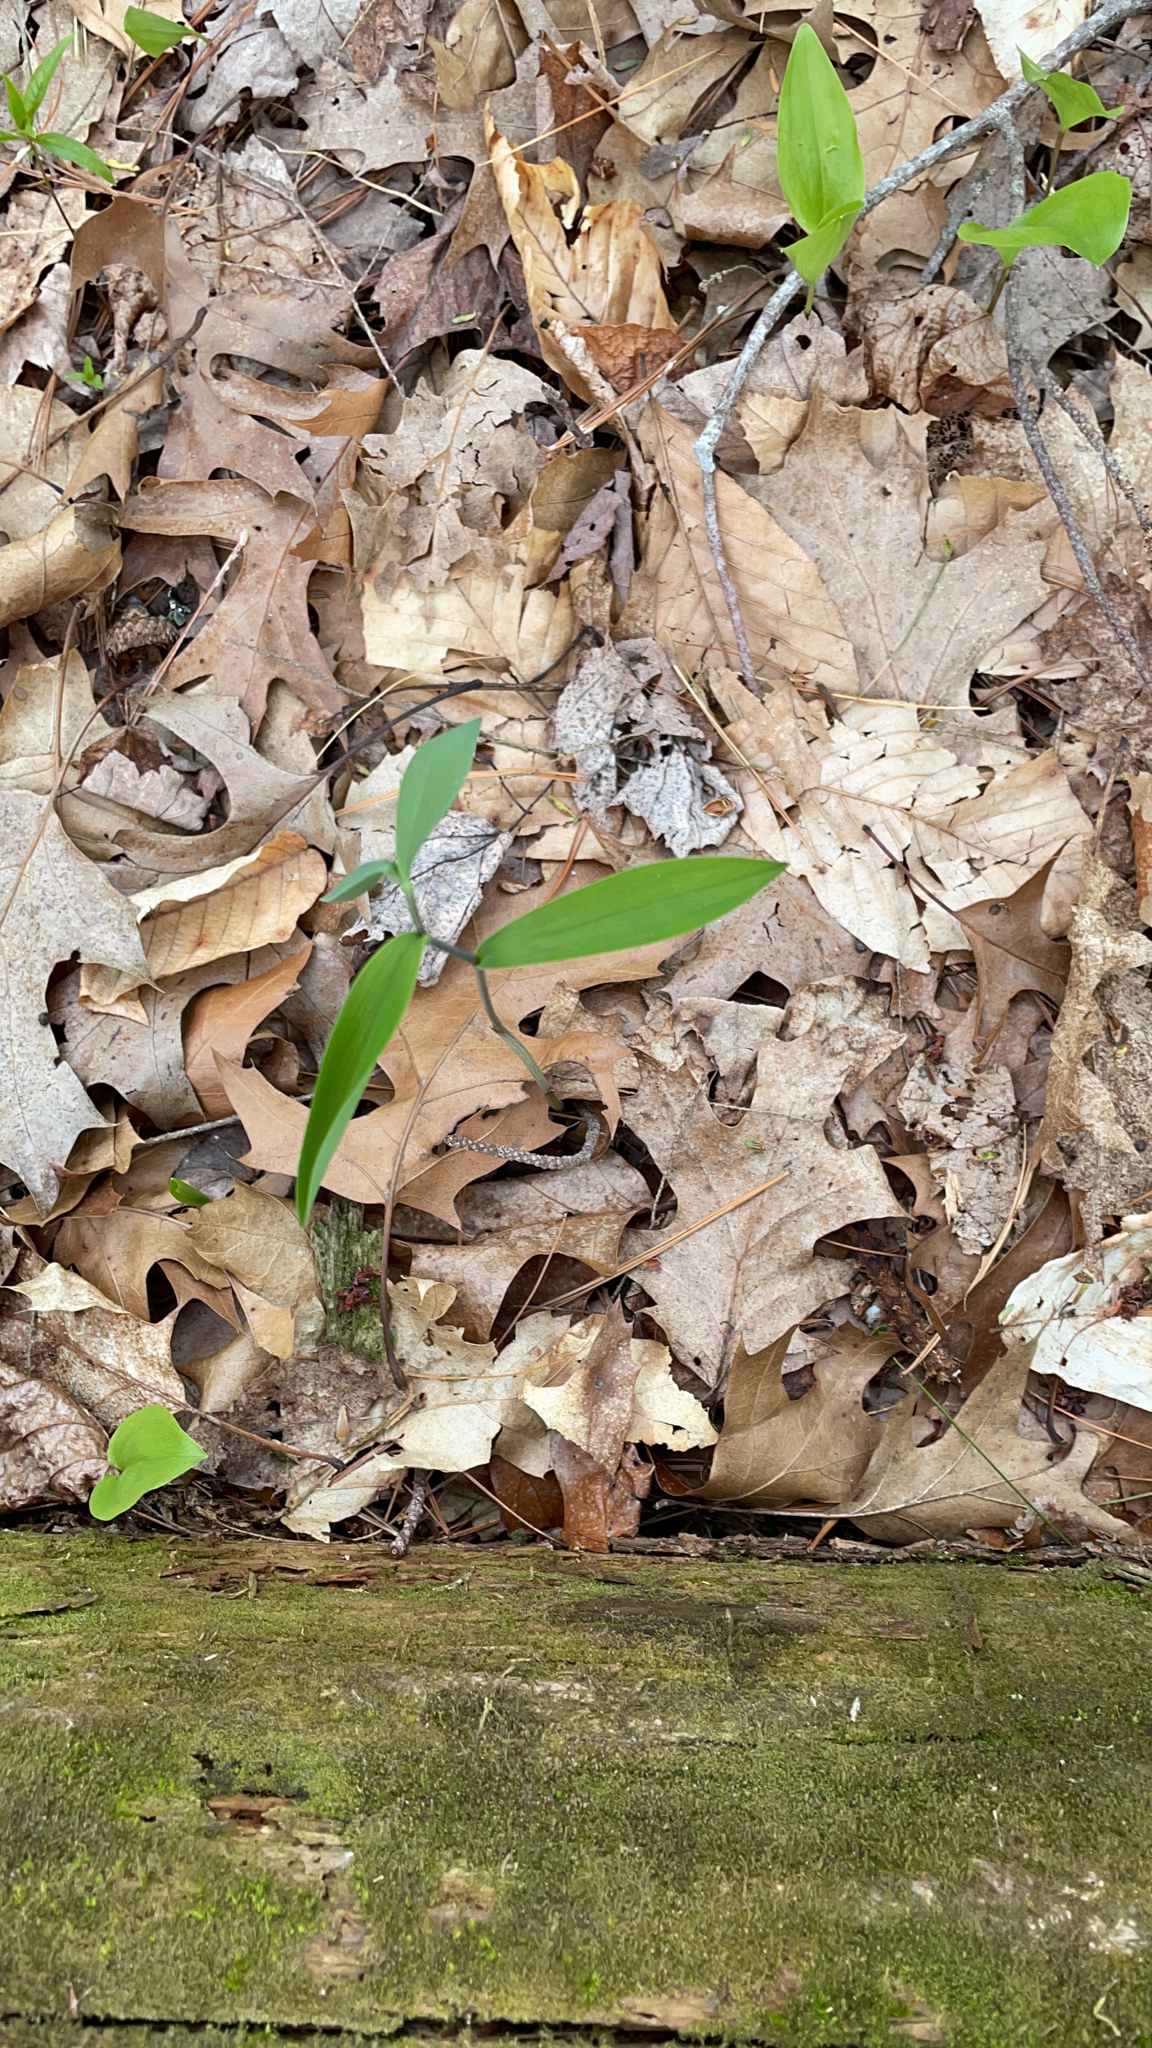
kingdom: Plantae
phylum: Tracheophyta
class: Liliopsida
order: Liliales
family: Colchicaceae
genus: Uvularia
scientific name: Uvularia sessilifolia
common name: Straw-lily
